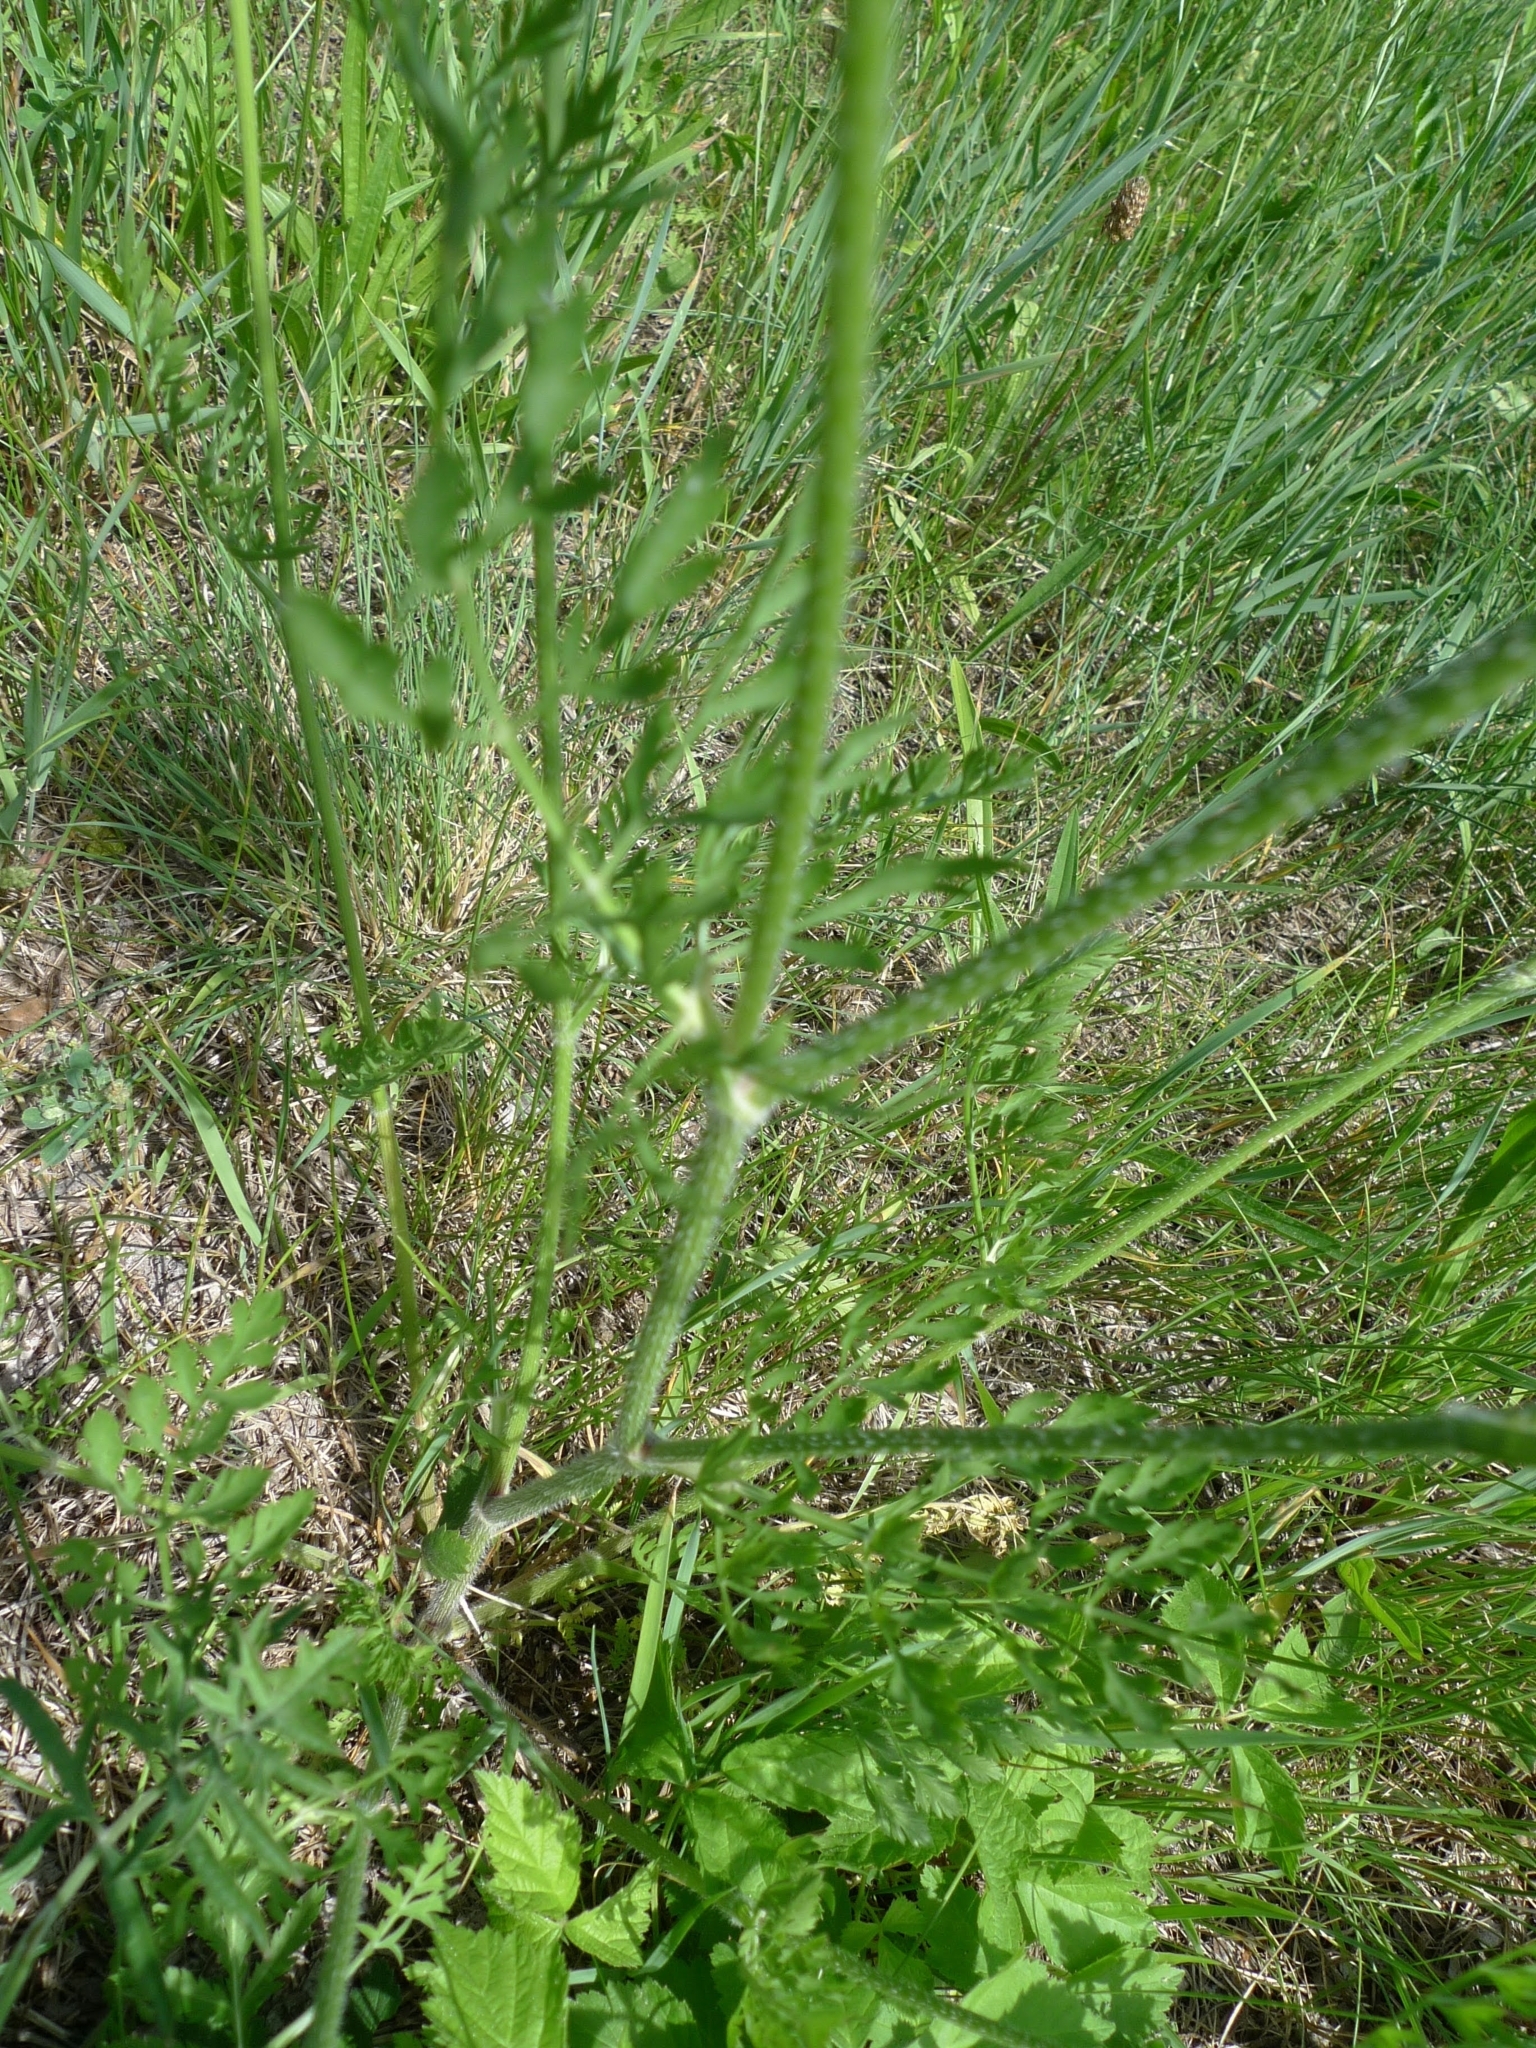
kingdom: Plantae
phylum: Tracheophyta
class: Magnoliopsida
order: Apiales
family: Apiaceae
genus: Daucus
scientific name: Daucus carota
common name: Wild carrot
